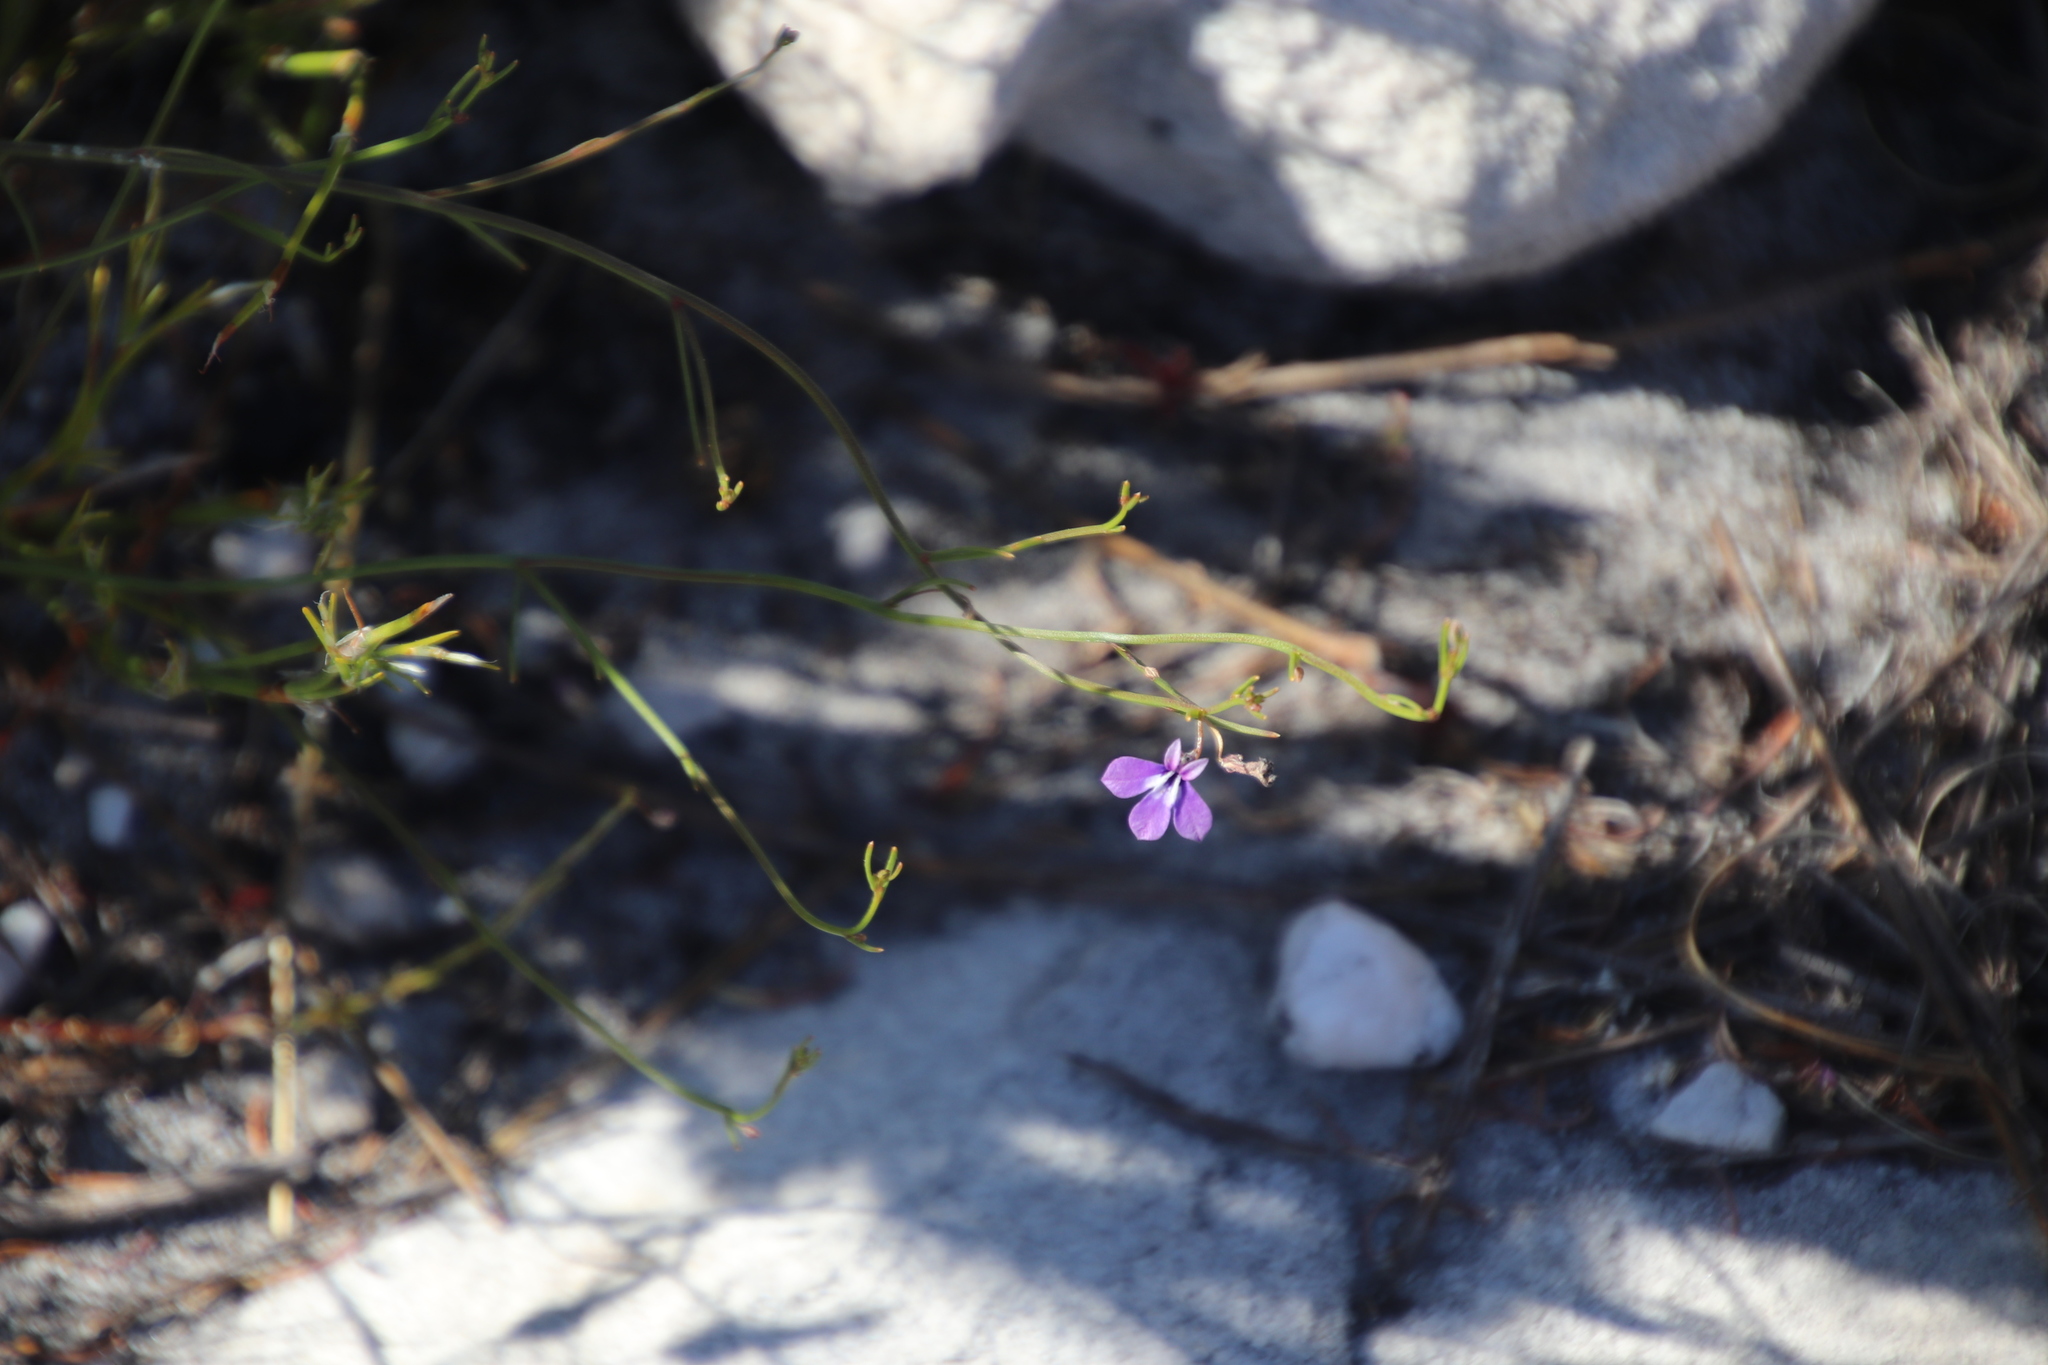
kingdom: Plantae
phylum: Tracheophyta
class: Magnoliopsida
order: Asterales
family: Campanulaceae
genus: Lobelia
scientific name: Lobelia setacea
